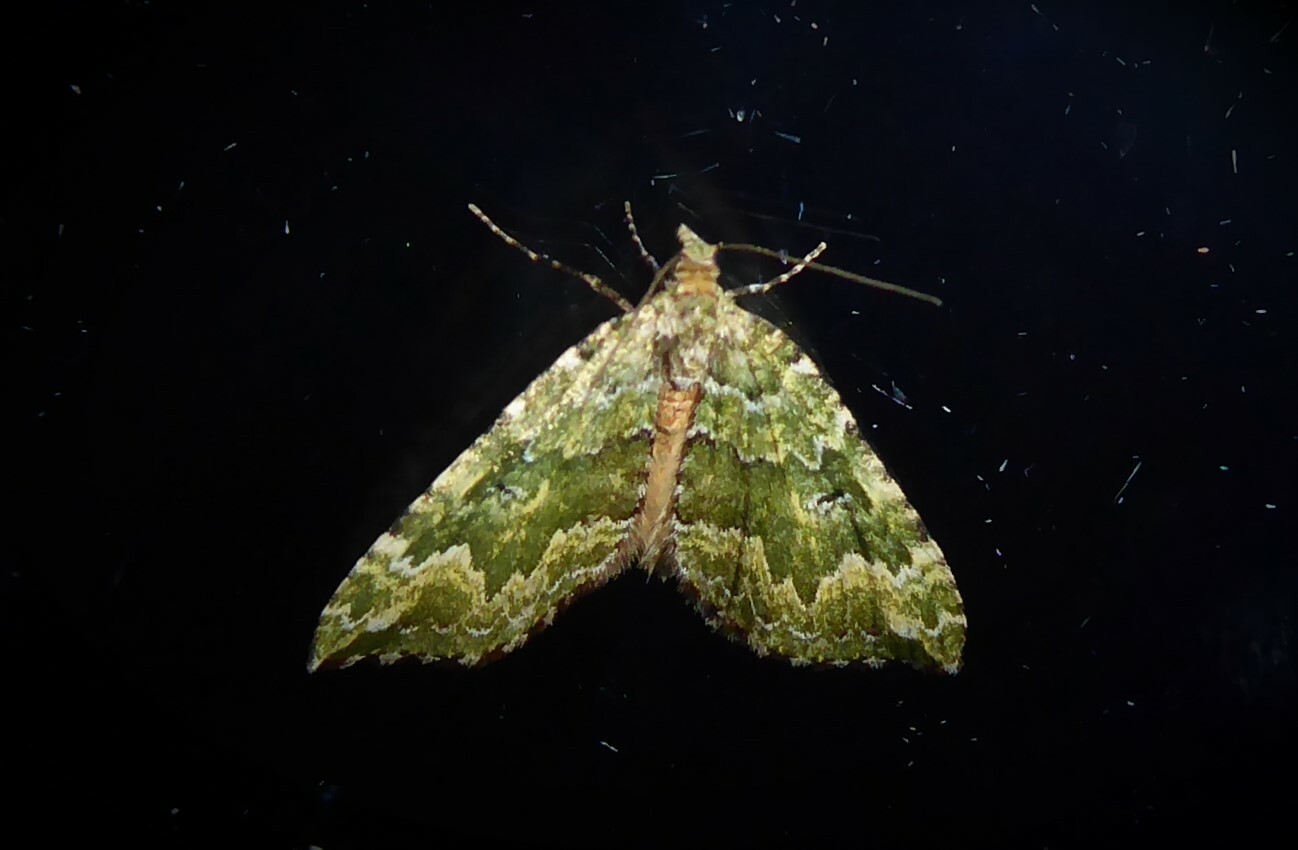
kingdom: Animalia
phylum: Arthropoda
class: Insecta
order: Lepidoptera
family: Geometridae
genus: Asaphodes
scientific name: Asaphodes beata
